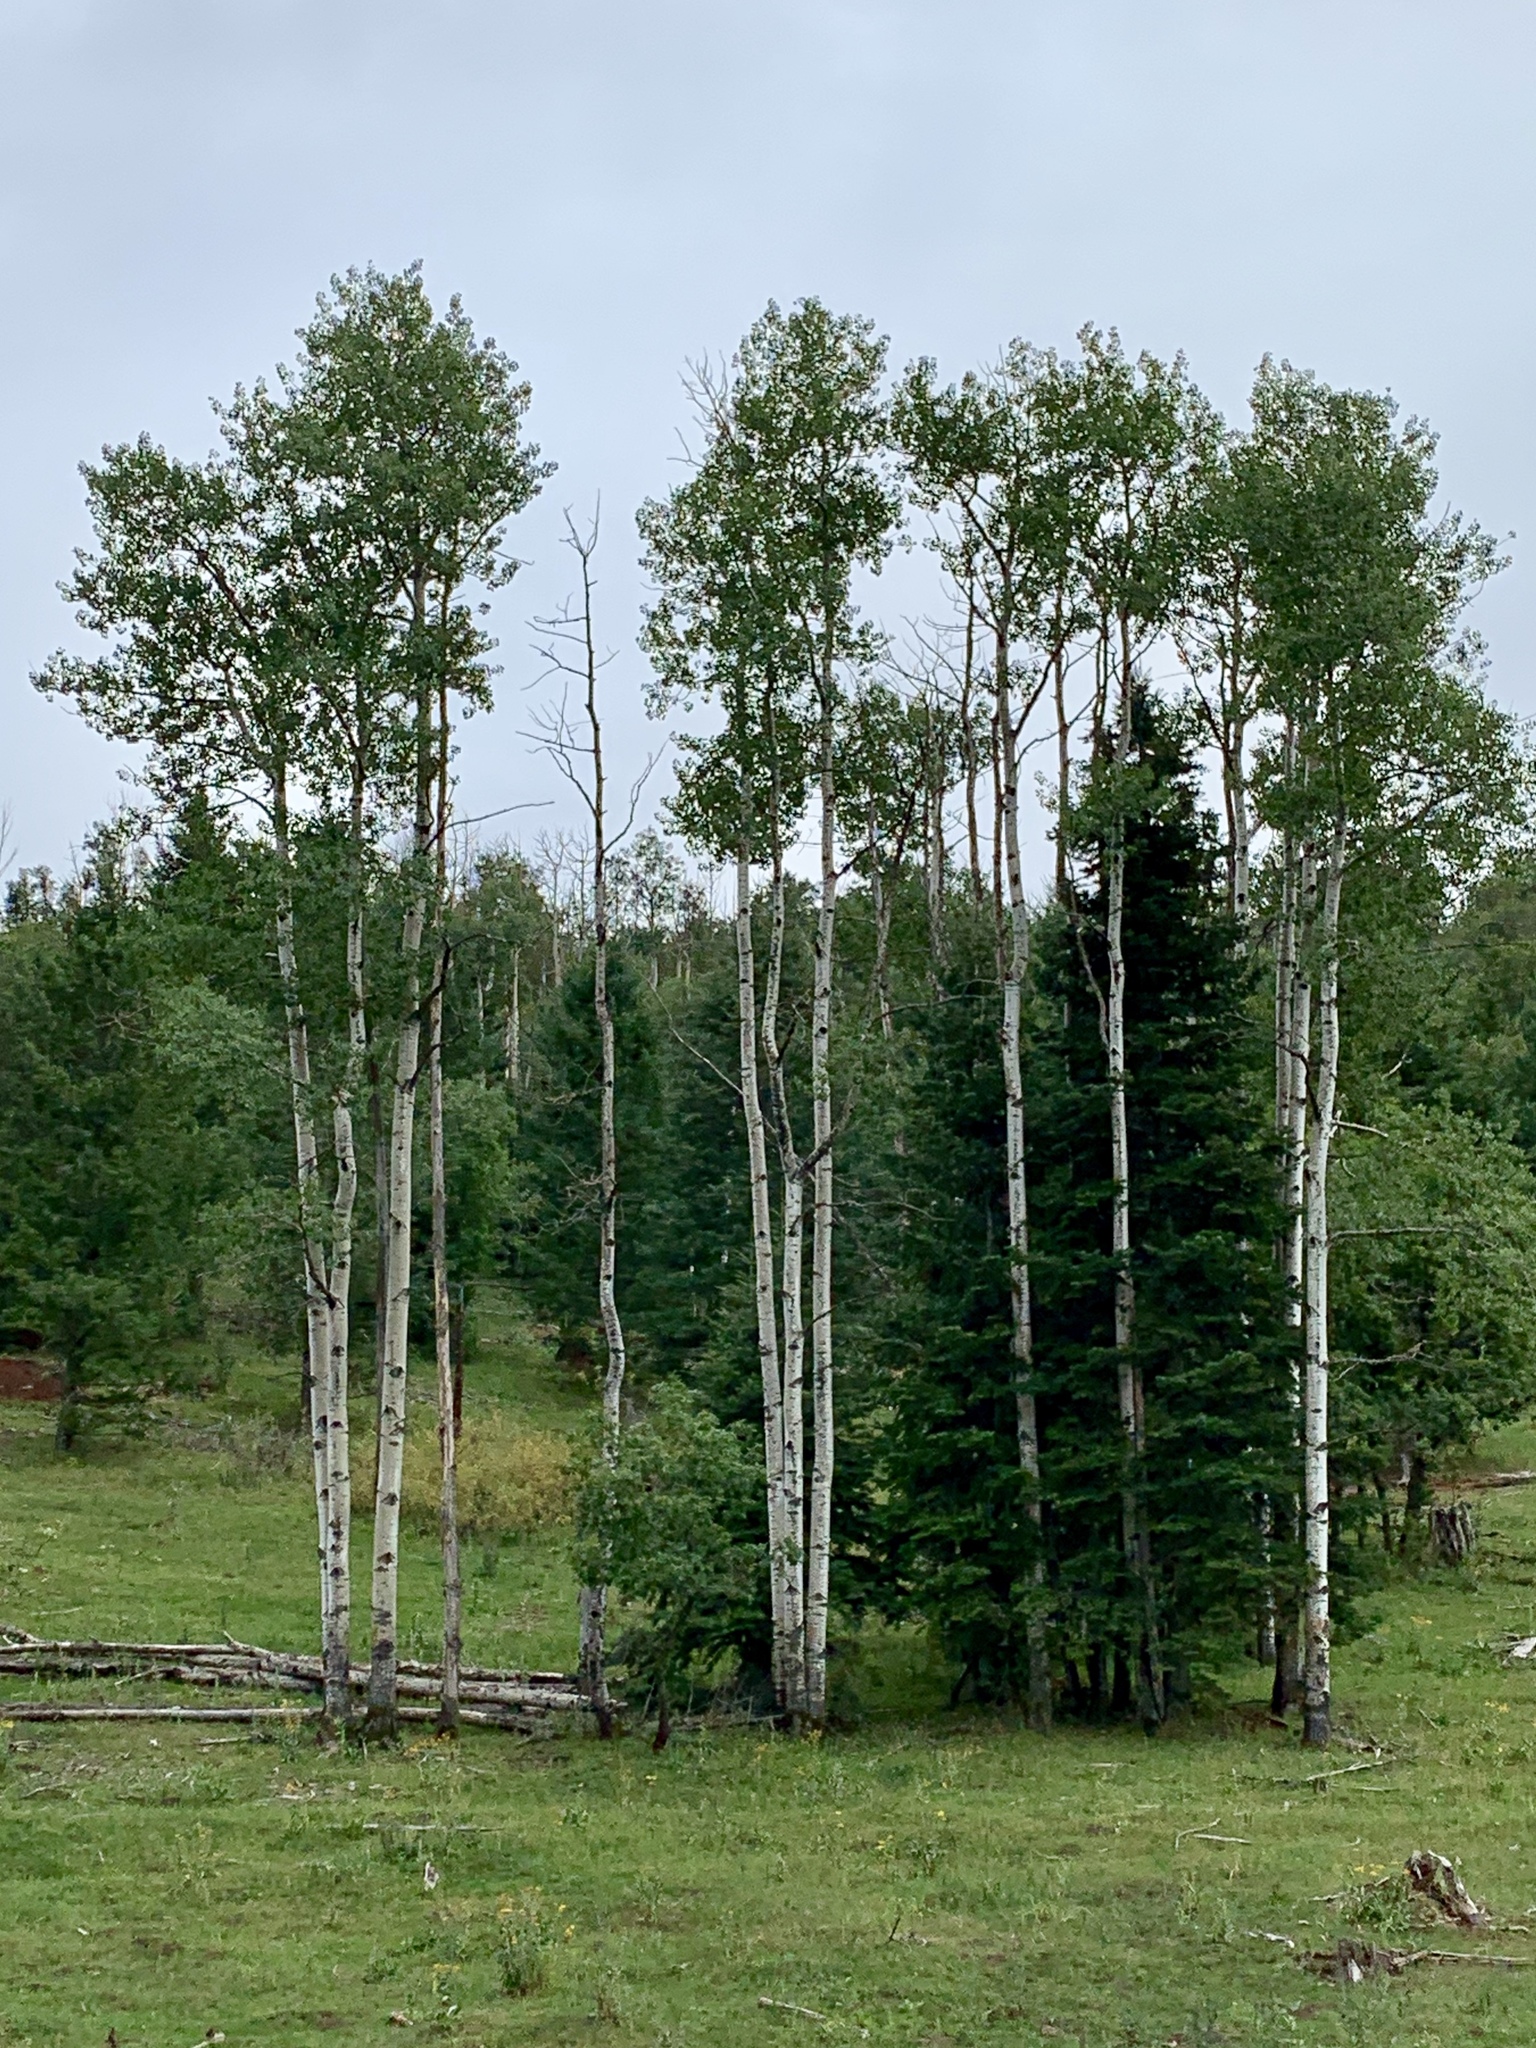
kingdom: Plantae
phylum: Tracheophyta
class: Magnoliopsida
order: Malpighiales
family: Salicaceae
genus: Populus
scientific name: Populus tremuloides
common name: Quaking aspen
